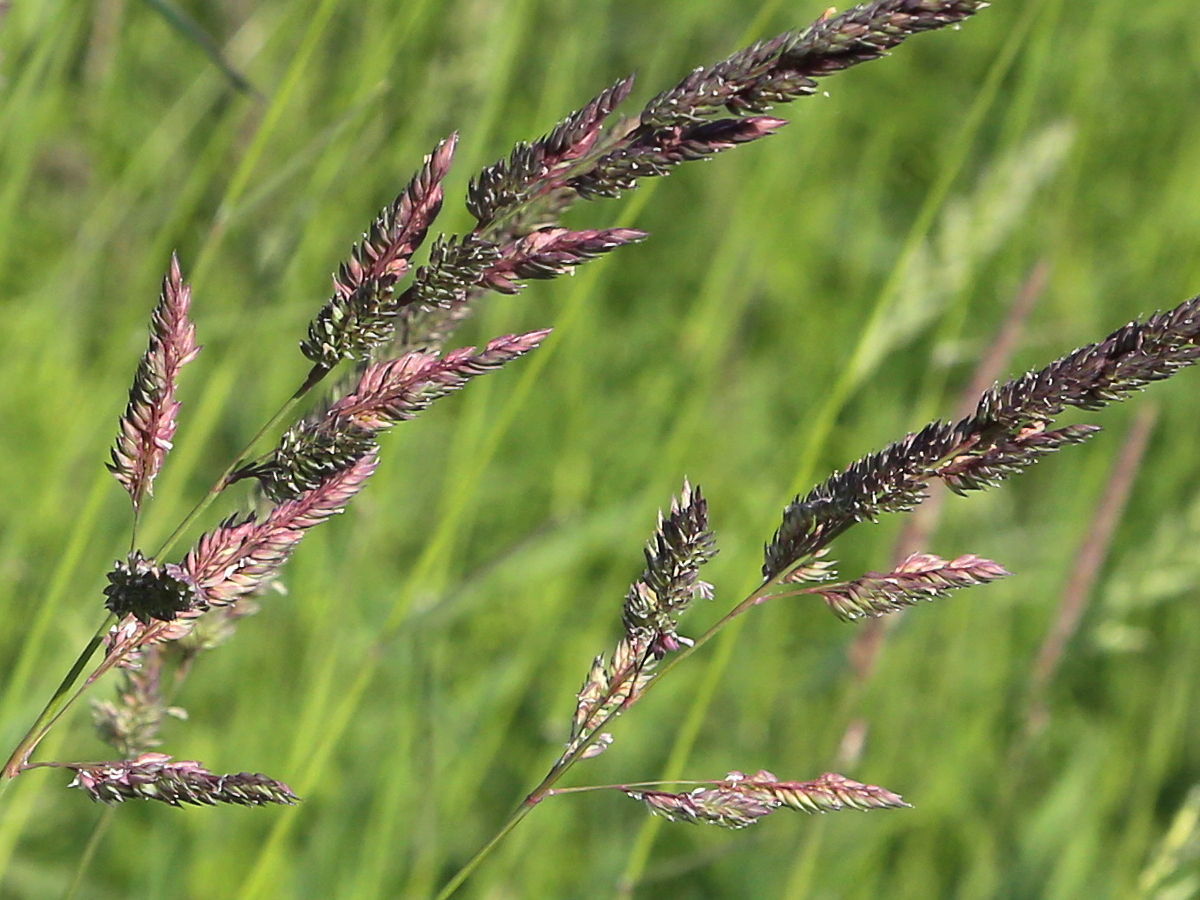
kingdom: Plantae
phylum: Tracheophyta
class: Liliopsida
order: Poales
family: Poaceae
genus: Phalaris
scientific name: Phalaris arundinacea
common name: Reed canary-grass
